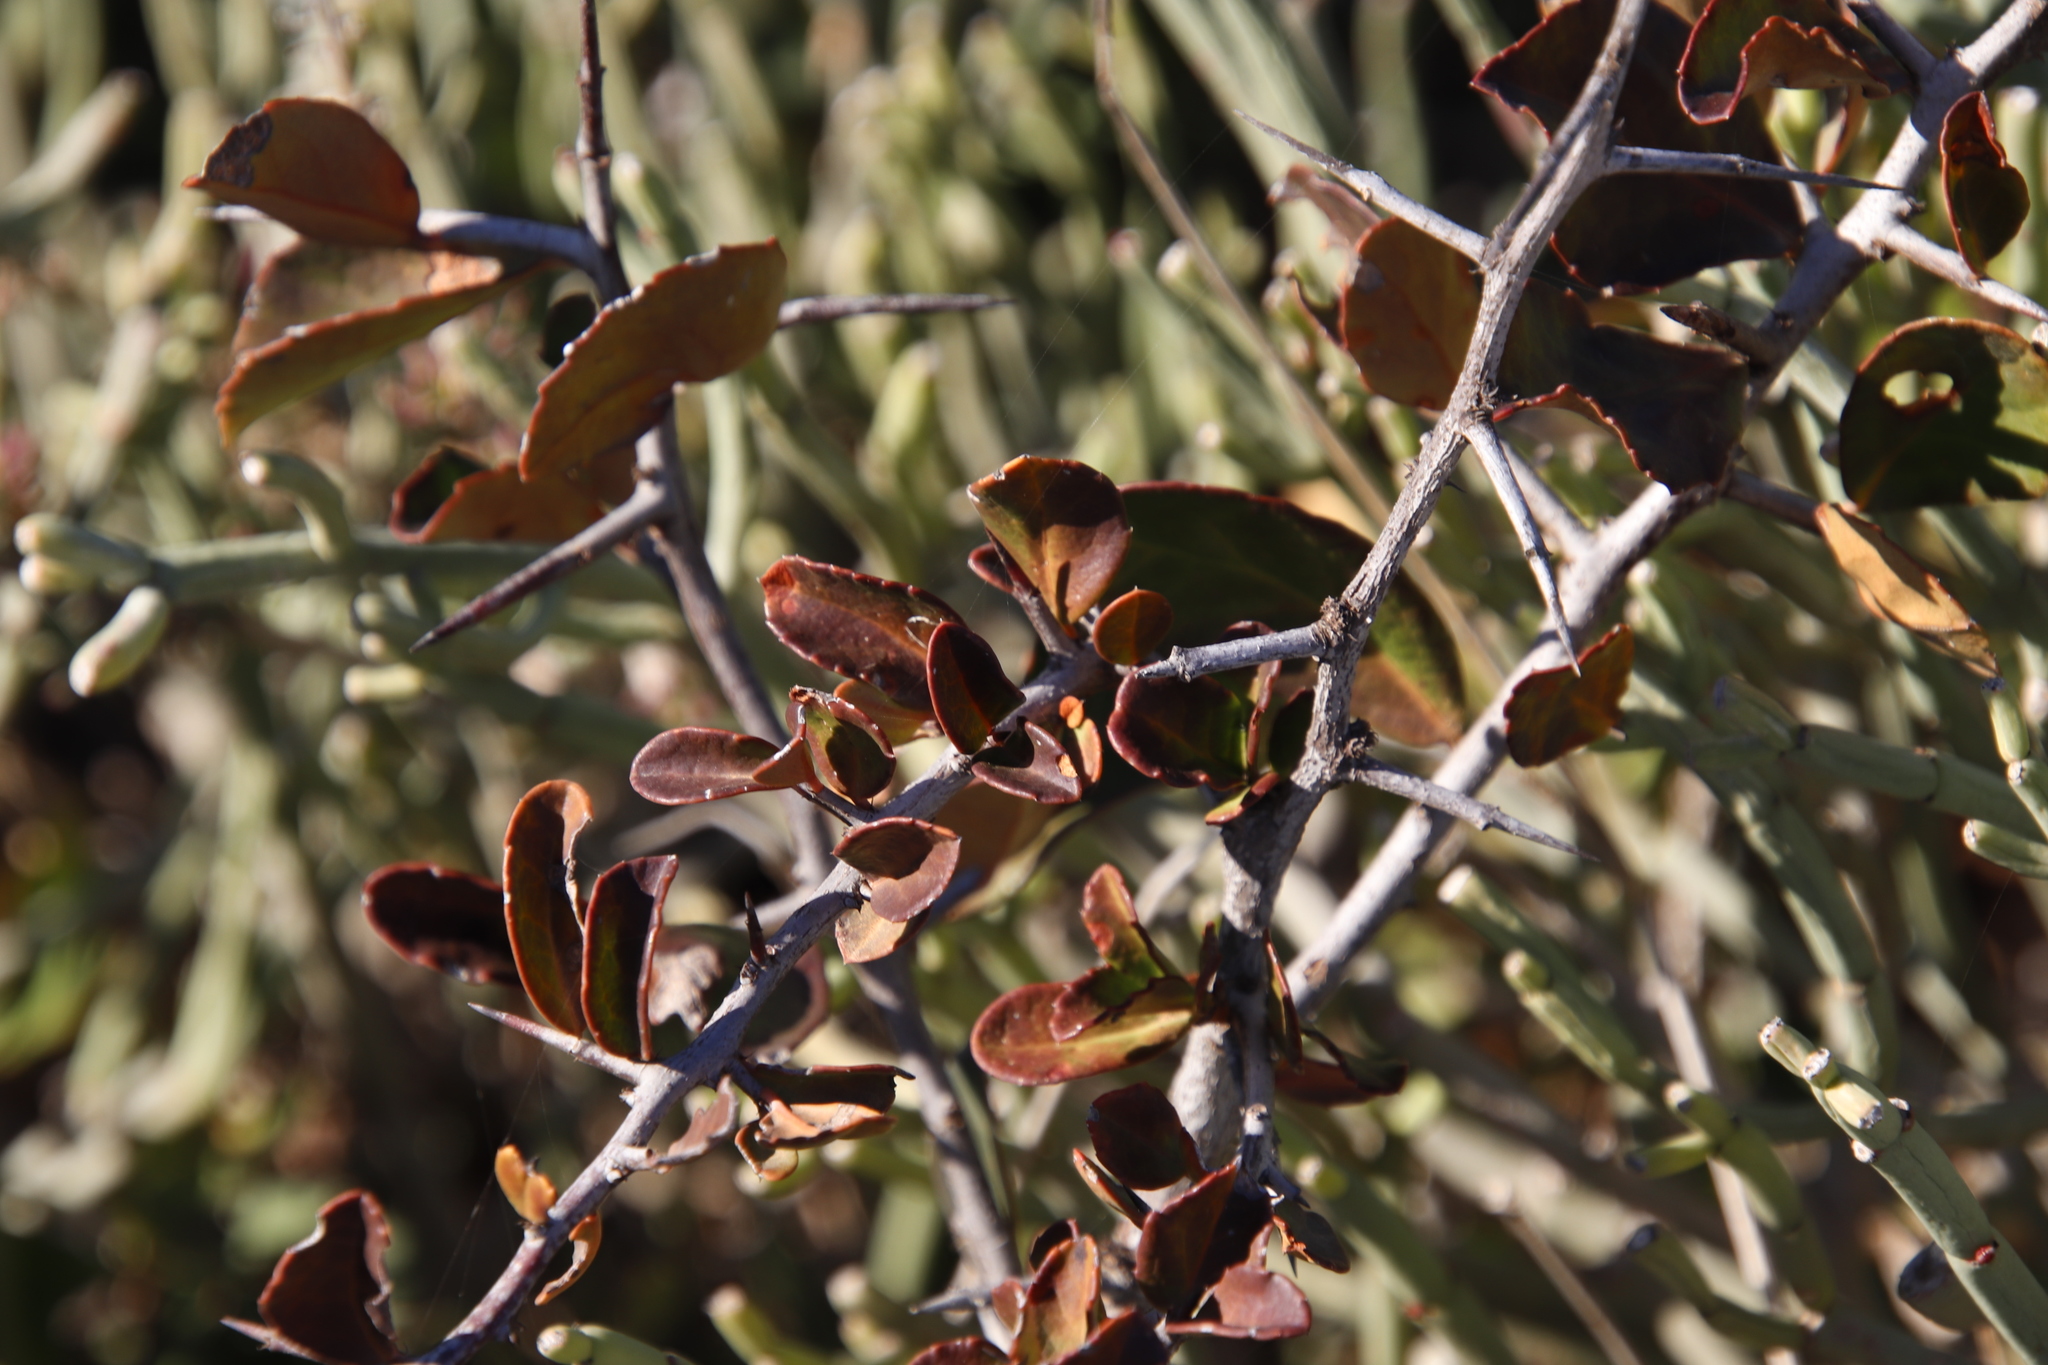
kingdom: Plantae
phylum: Tracheophyta
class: Magnoliopsida
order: Celastrales
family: Celastraceae
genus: Putterlickia
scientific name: Putterlickia pyracantha
